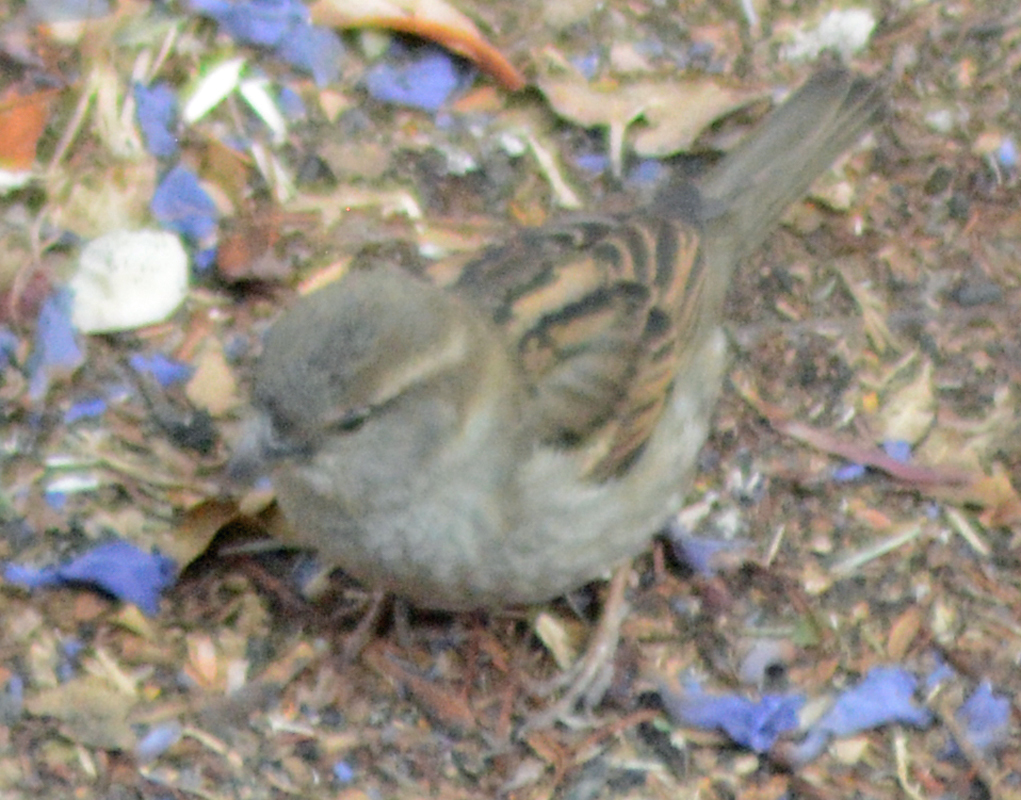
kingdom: Animalia
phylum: Chordata
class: Aves
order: Passeriformes
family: Passeridae
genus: Passer
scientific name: Passer domesticus
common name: House sparrow
